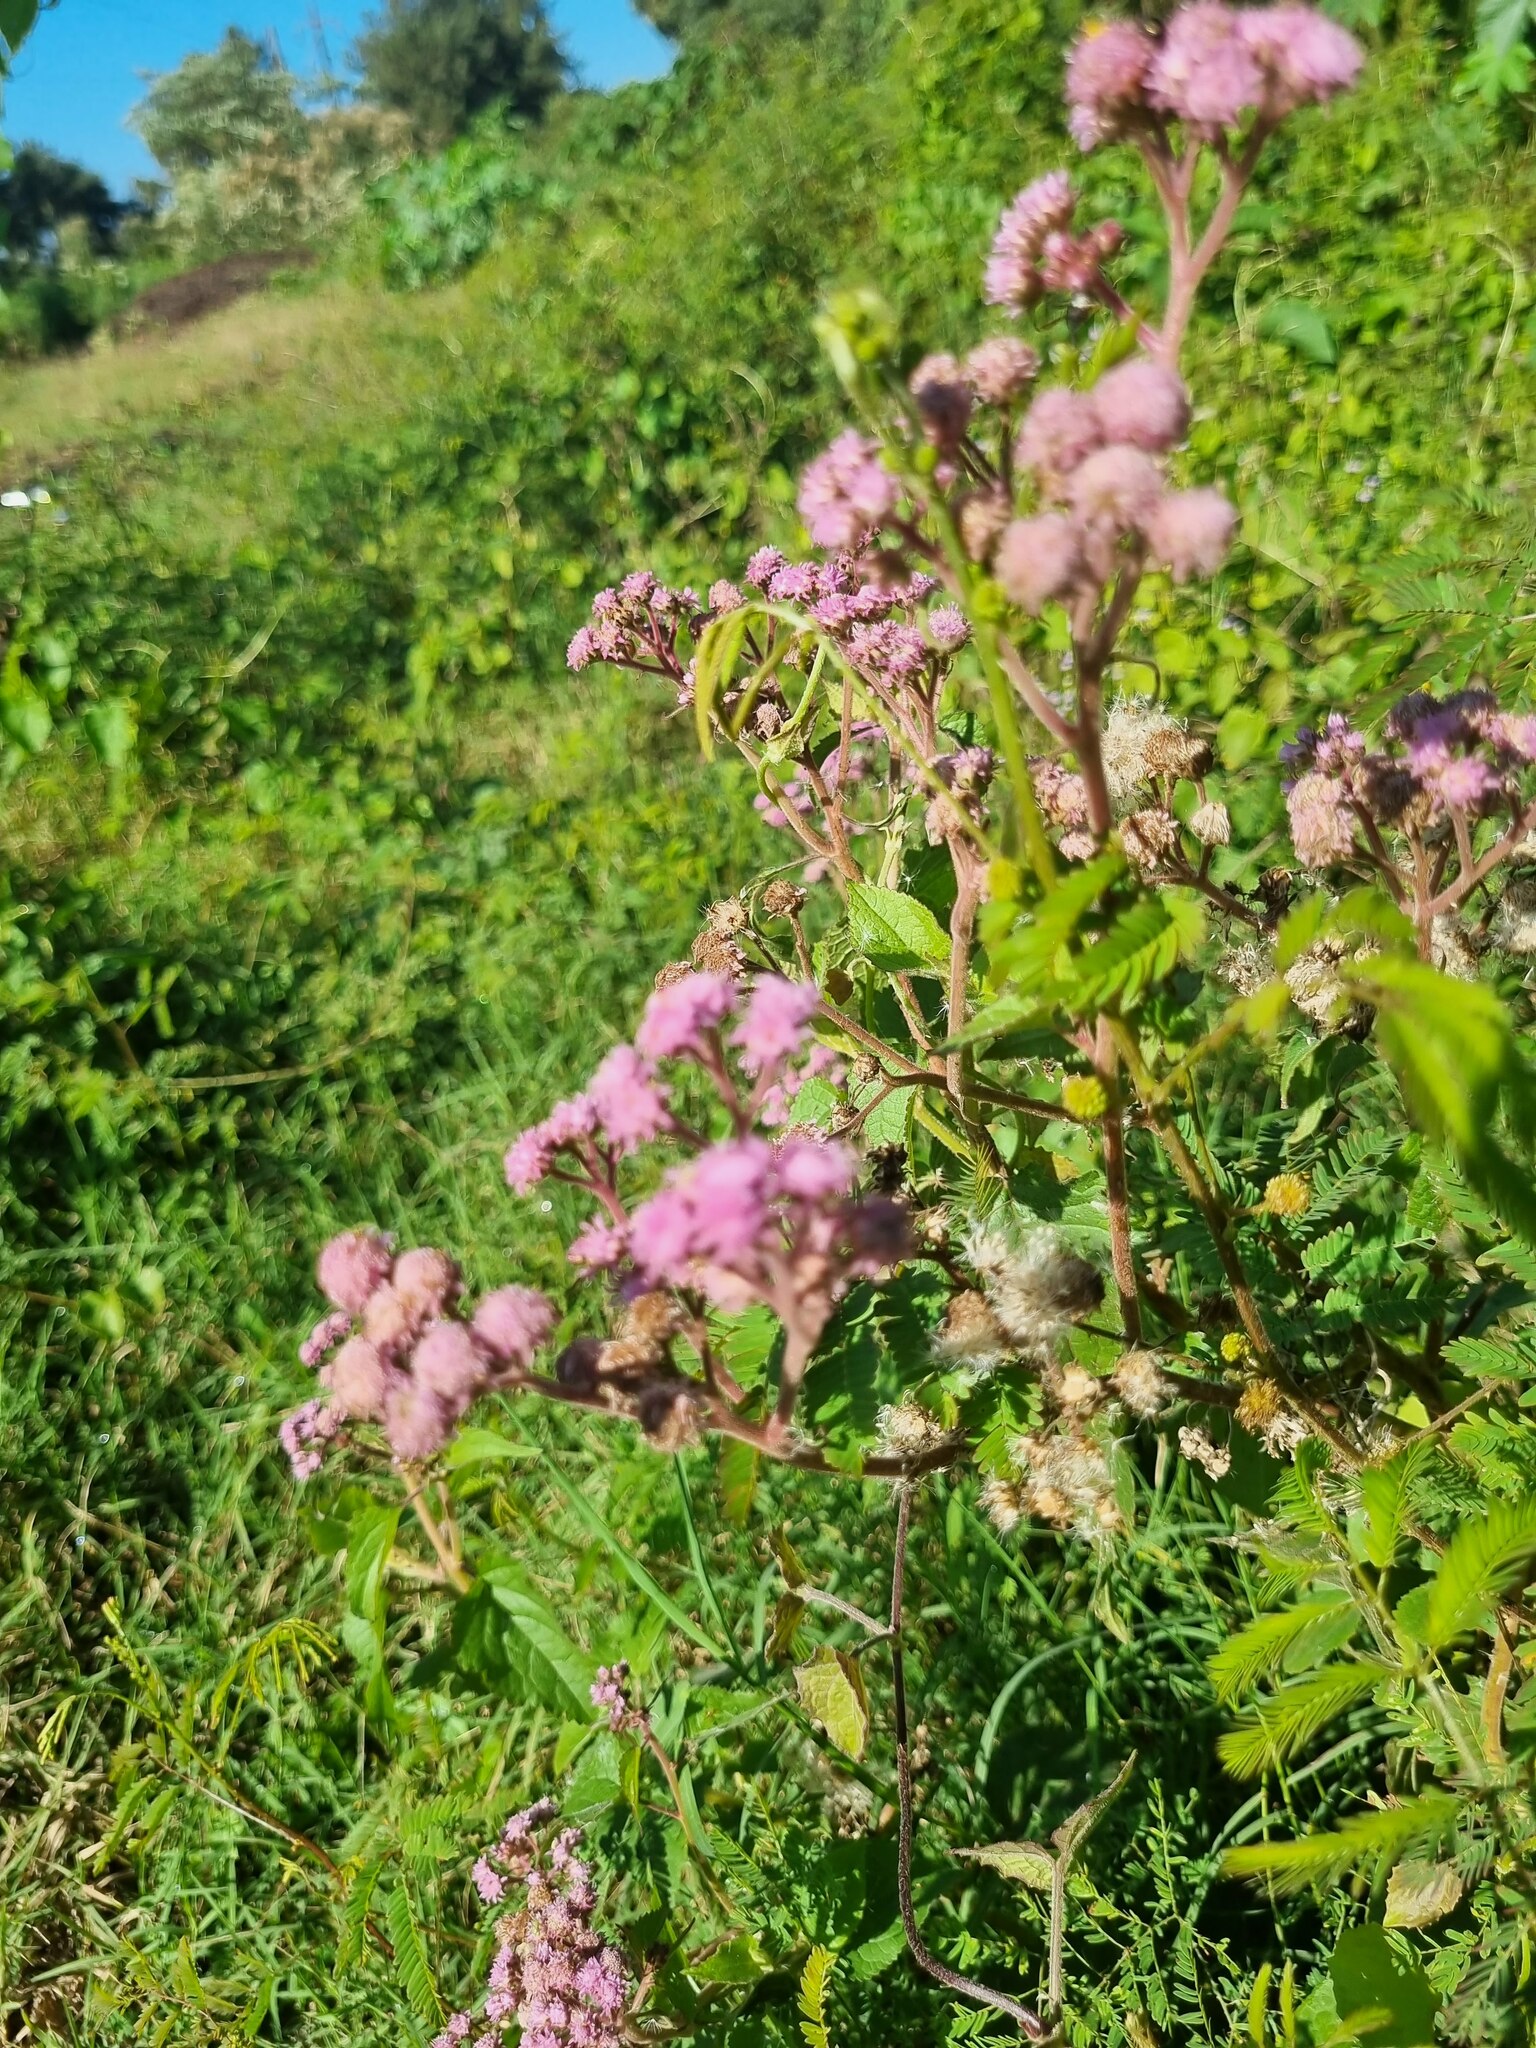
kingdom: Plantae
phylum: Tracheophyta
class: Magnoliopsida
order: Asterales
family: Asteraceae
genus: Urolepis
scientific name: Urolepis hecatantha
